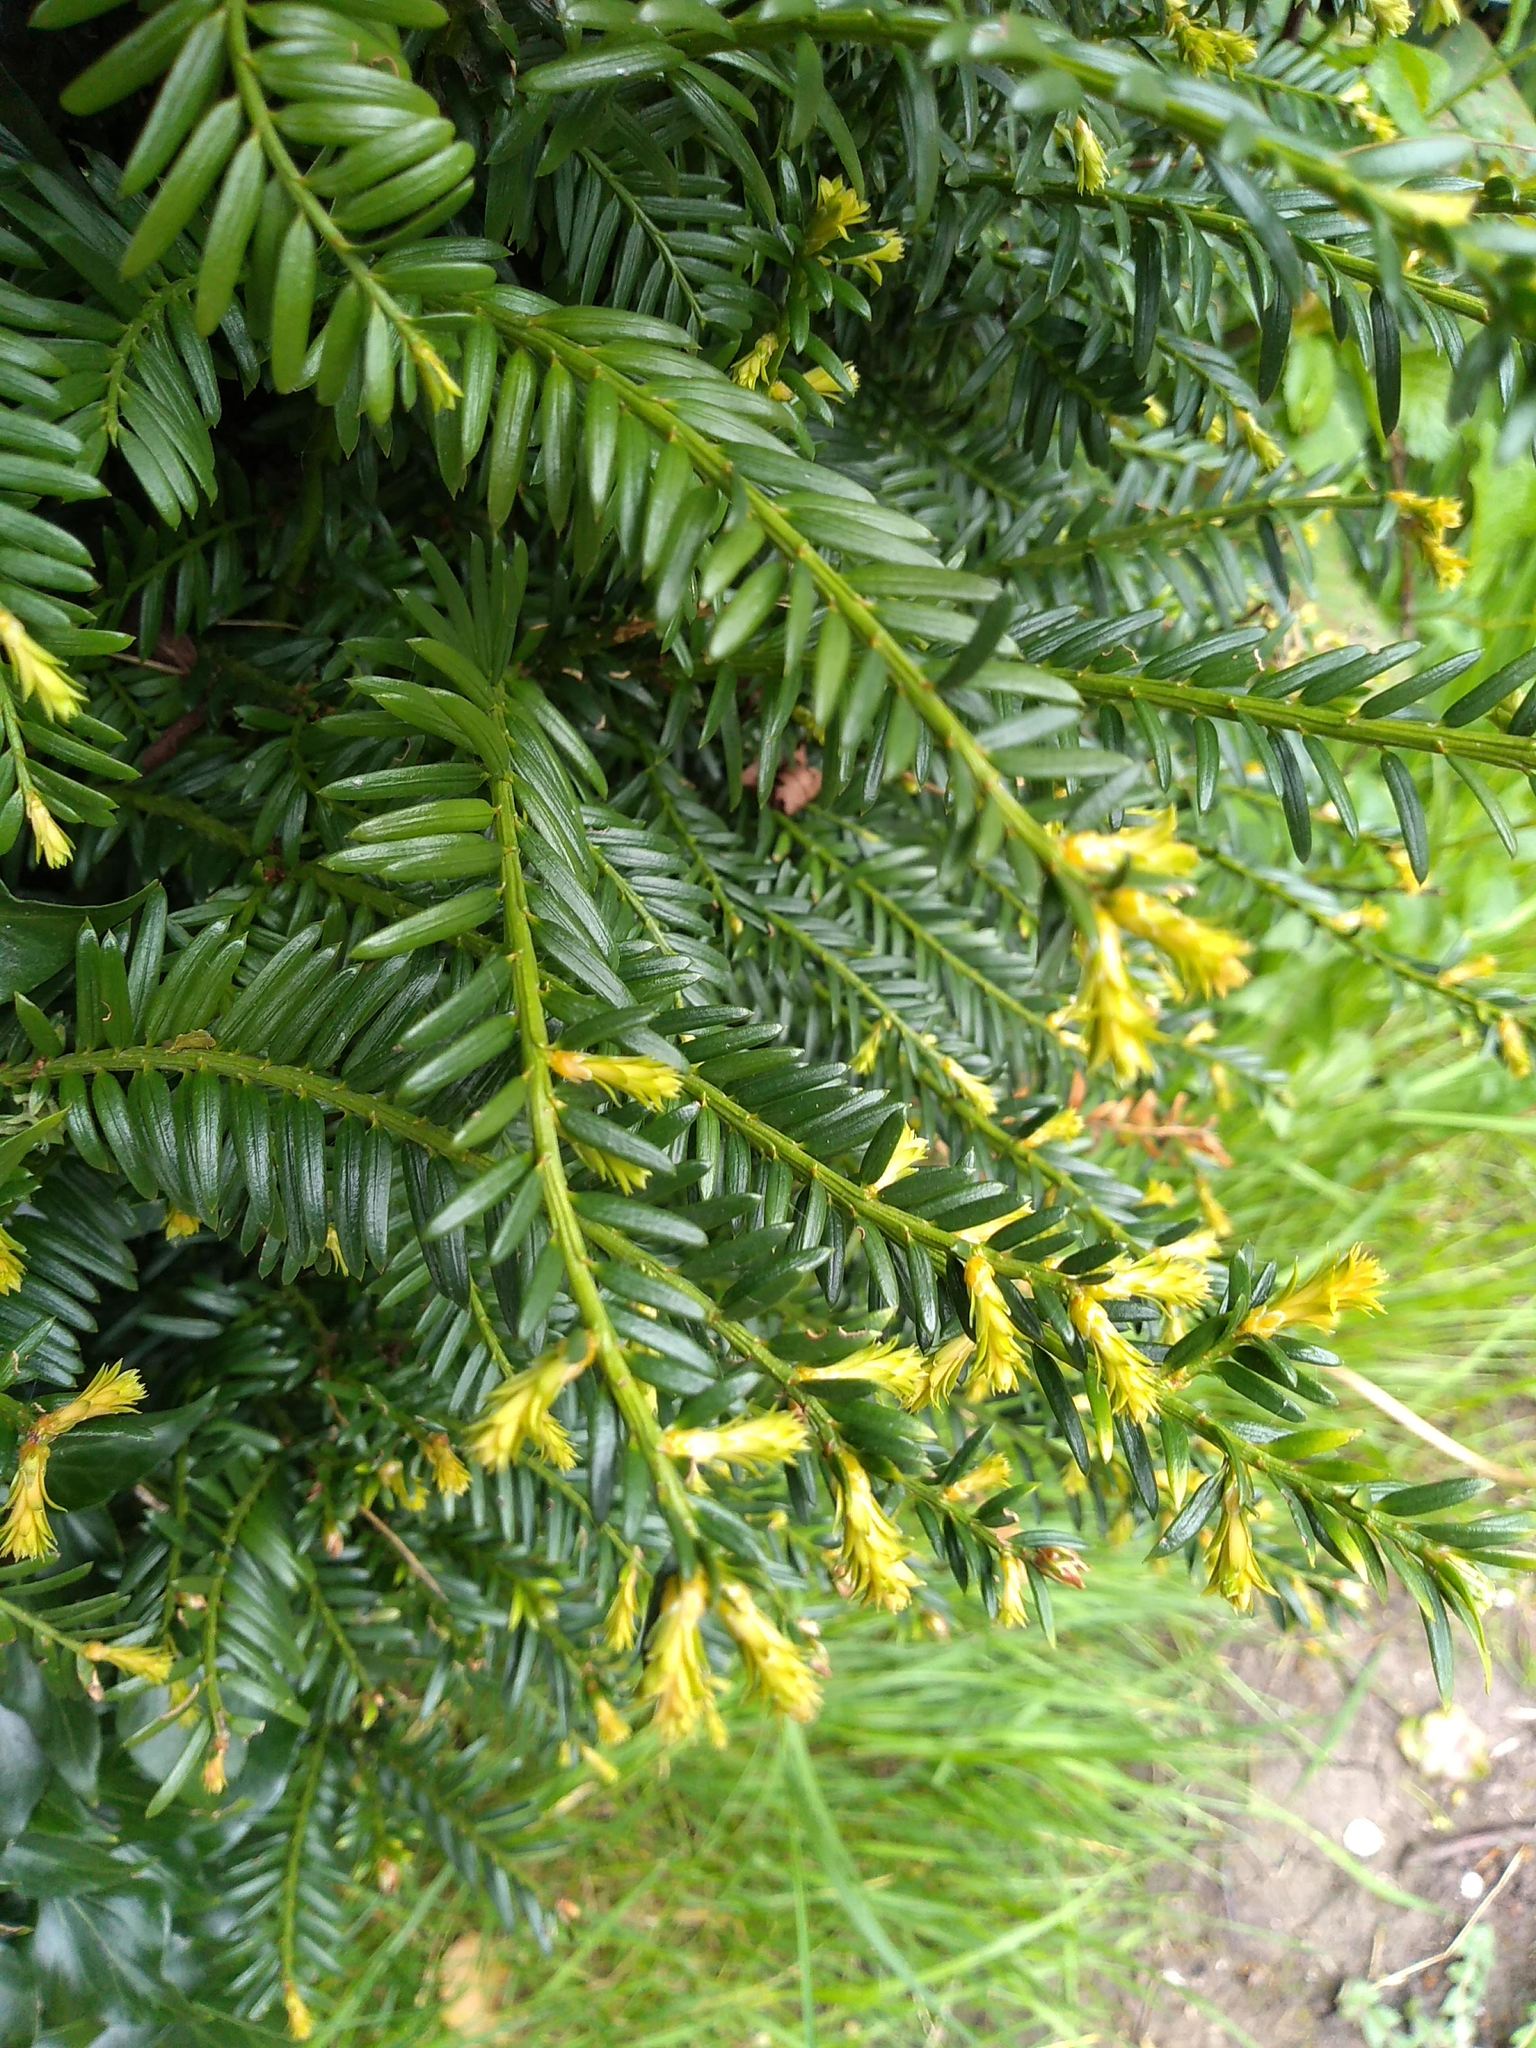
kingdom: Plantae
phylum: Tracheophyta
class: Pinopsida
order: Pinales
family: Taxaceae
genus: Taxus
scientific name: Taxus baccata
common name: Yew
